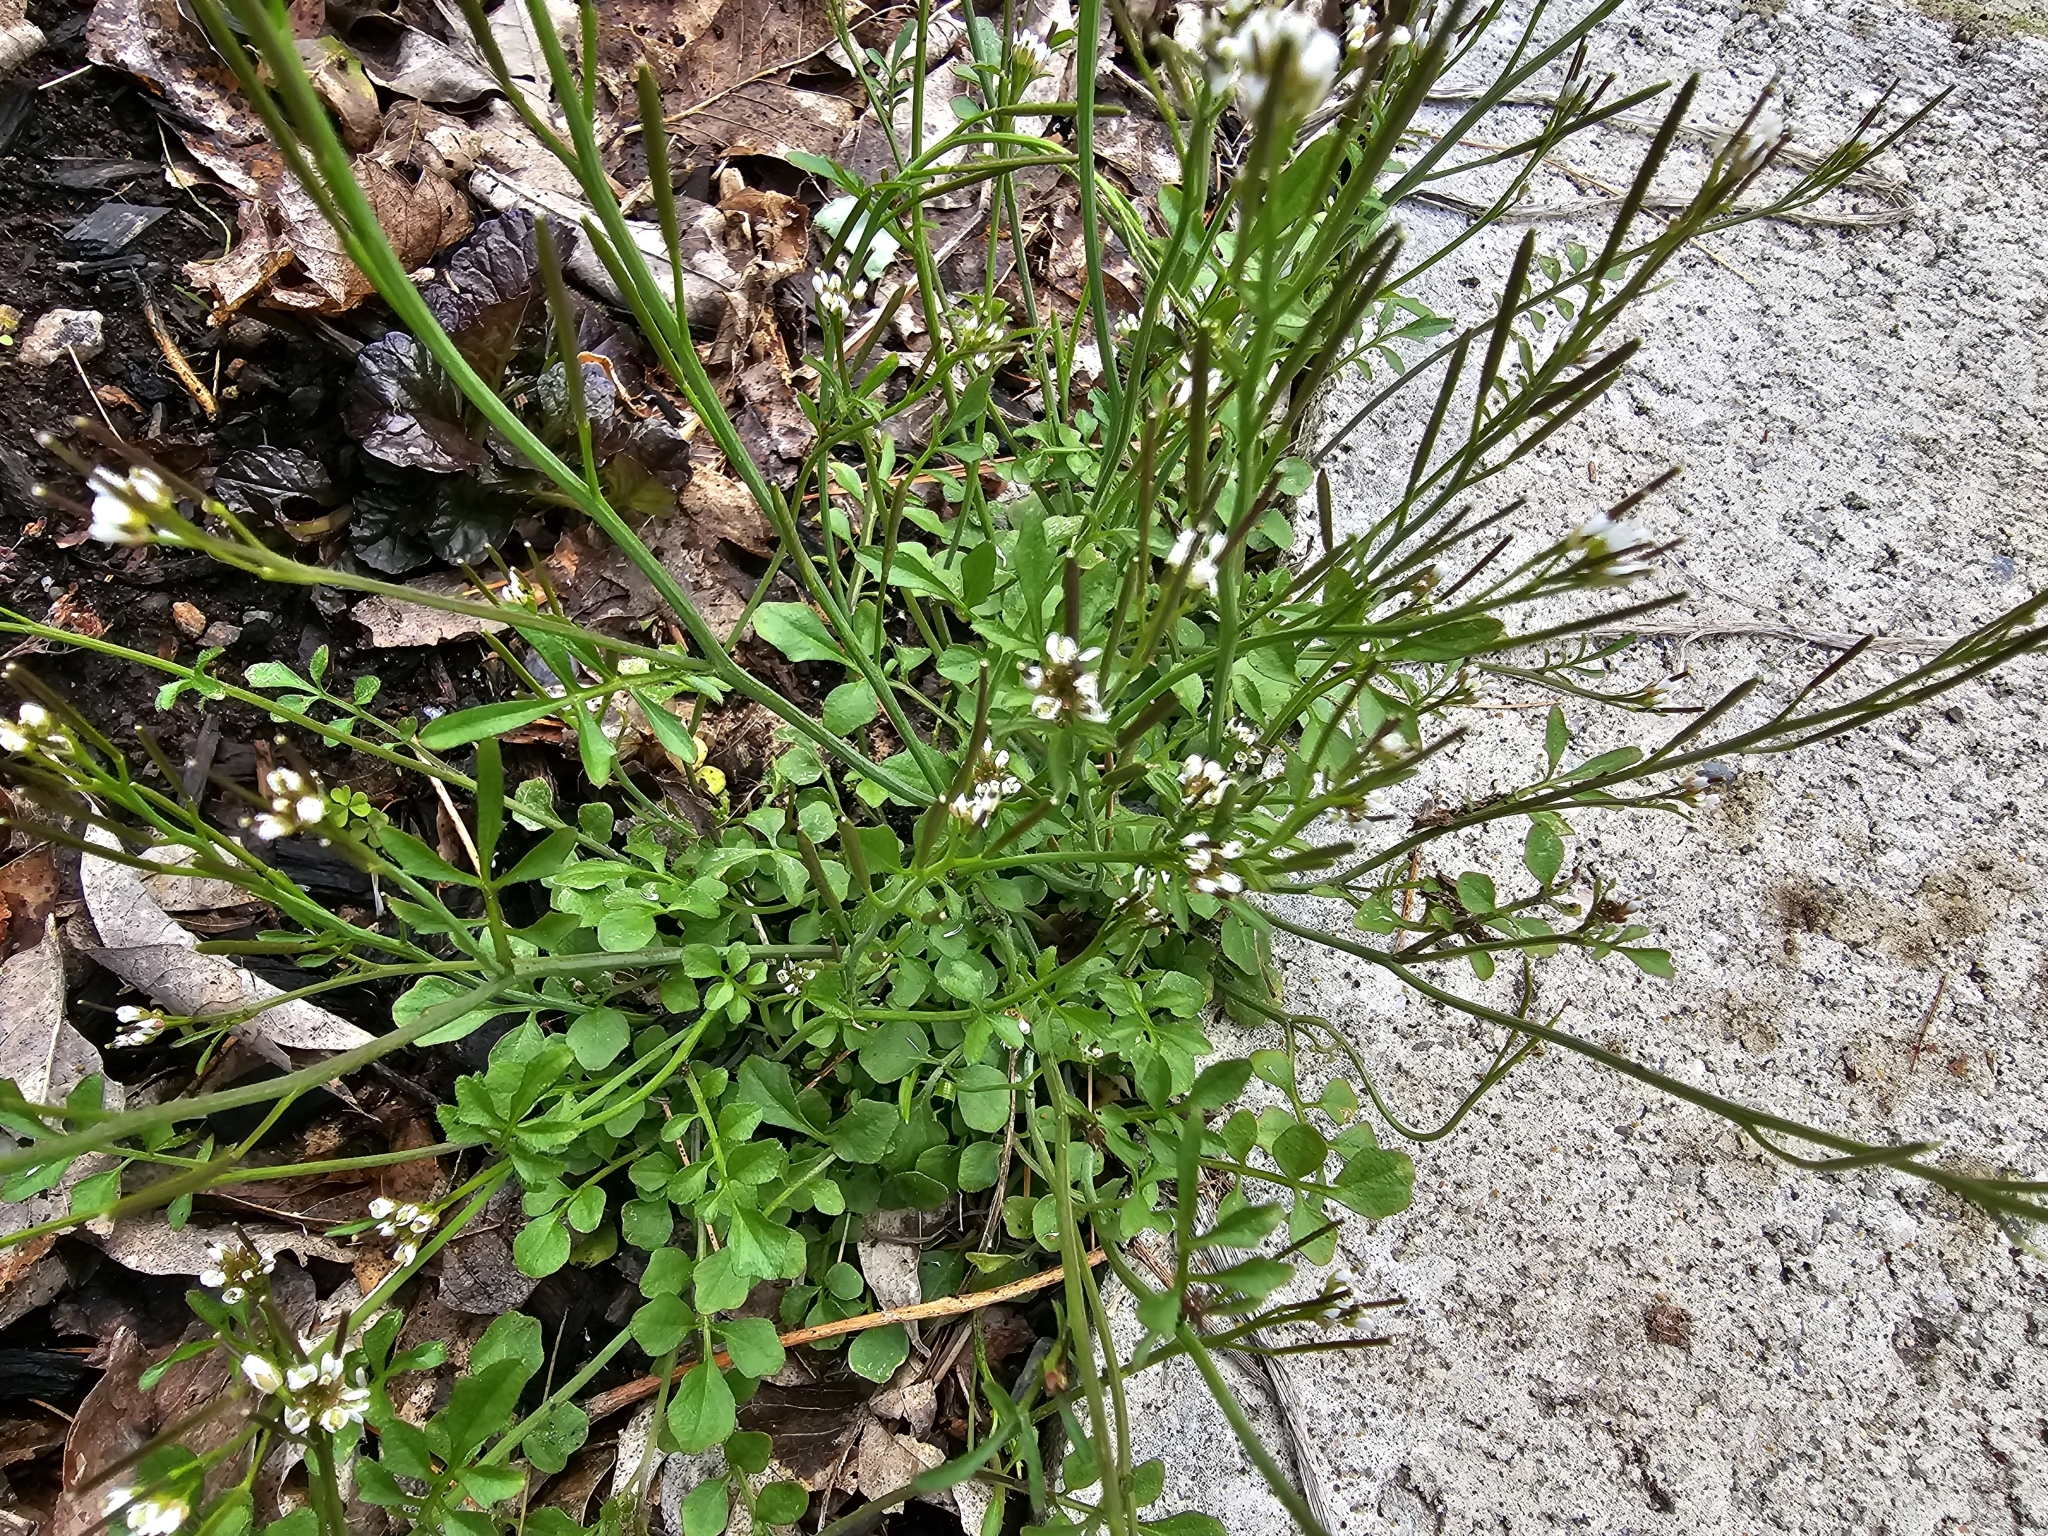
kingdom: Plantae
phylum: Tracheophyta
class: Magnoliopsida
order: Brassicales
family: Brassicaceae
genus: Cardamine
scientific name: Cardamine hirsuta
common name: Hairy bittercress
